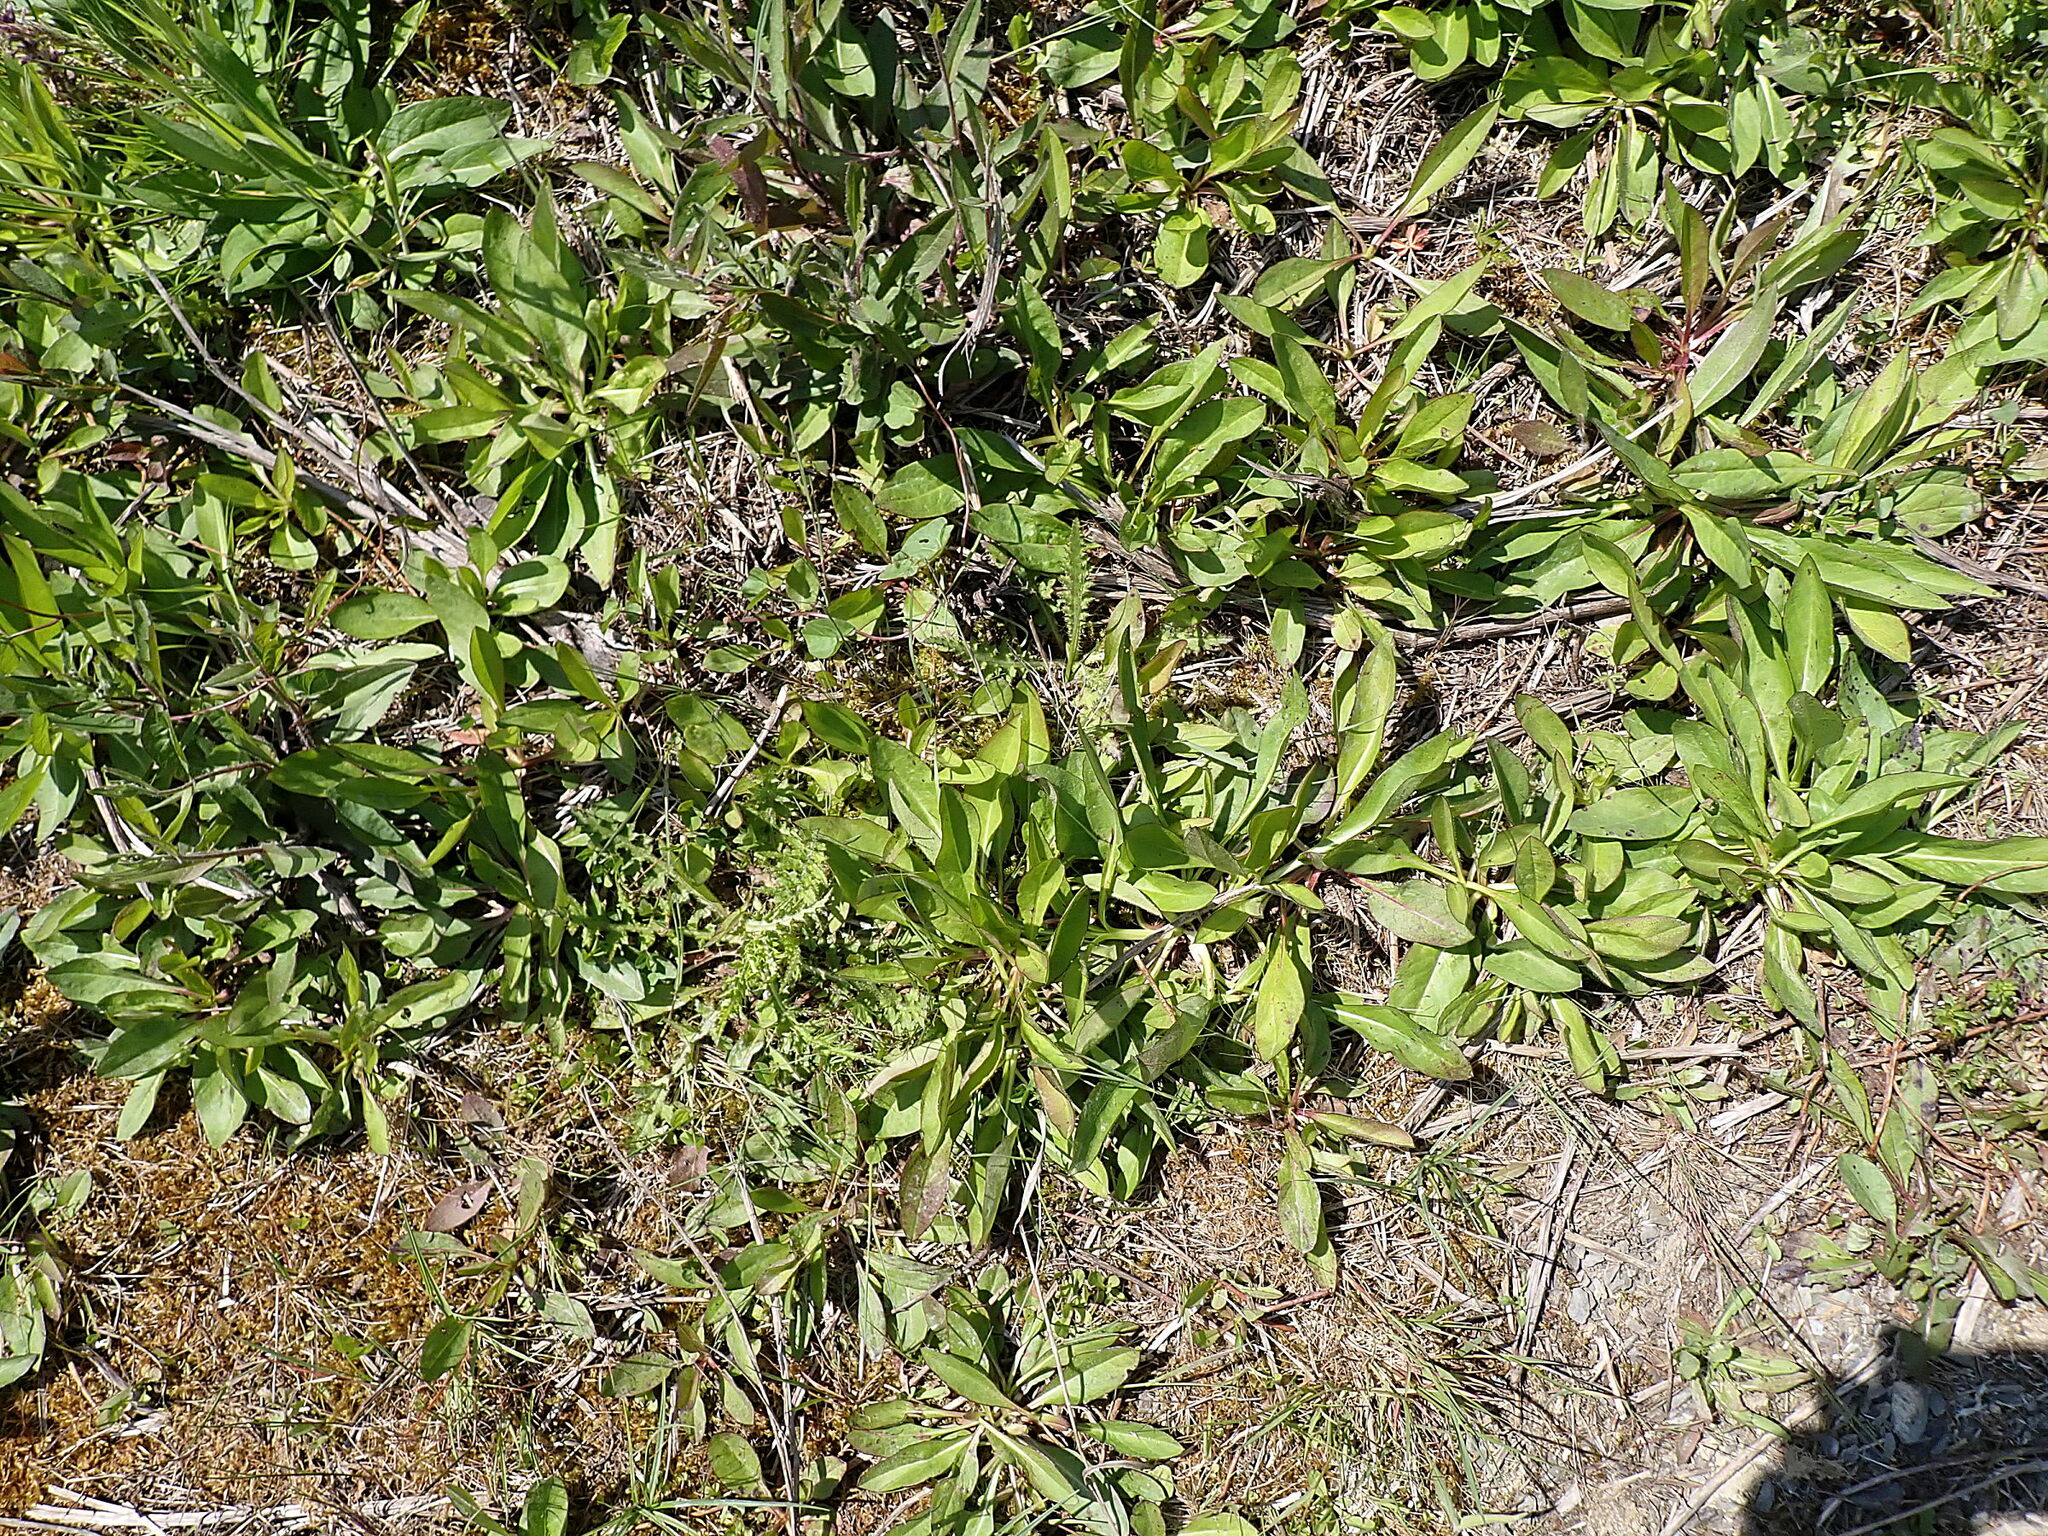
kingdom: Plantae
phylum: Tracheophyta
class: Magnoliopsida
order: Dipsacales
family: Caprifoliaceae
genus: Succisa
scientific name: Succisa pratensis
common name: Devil's-bit
